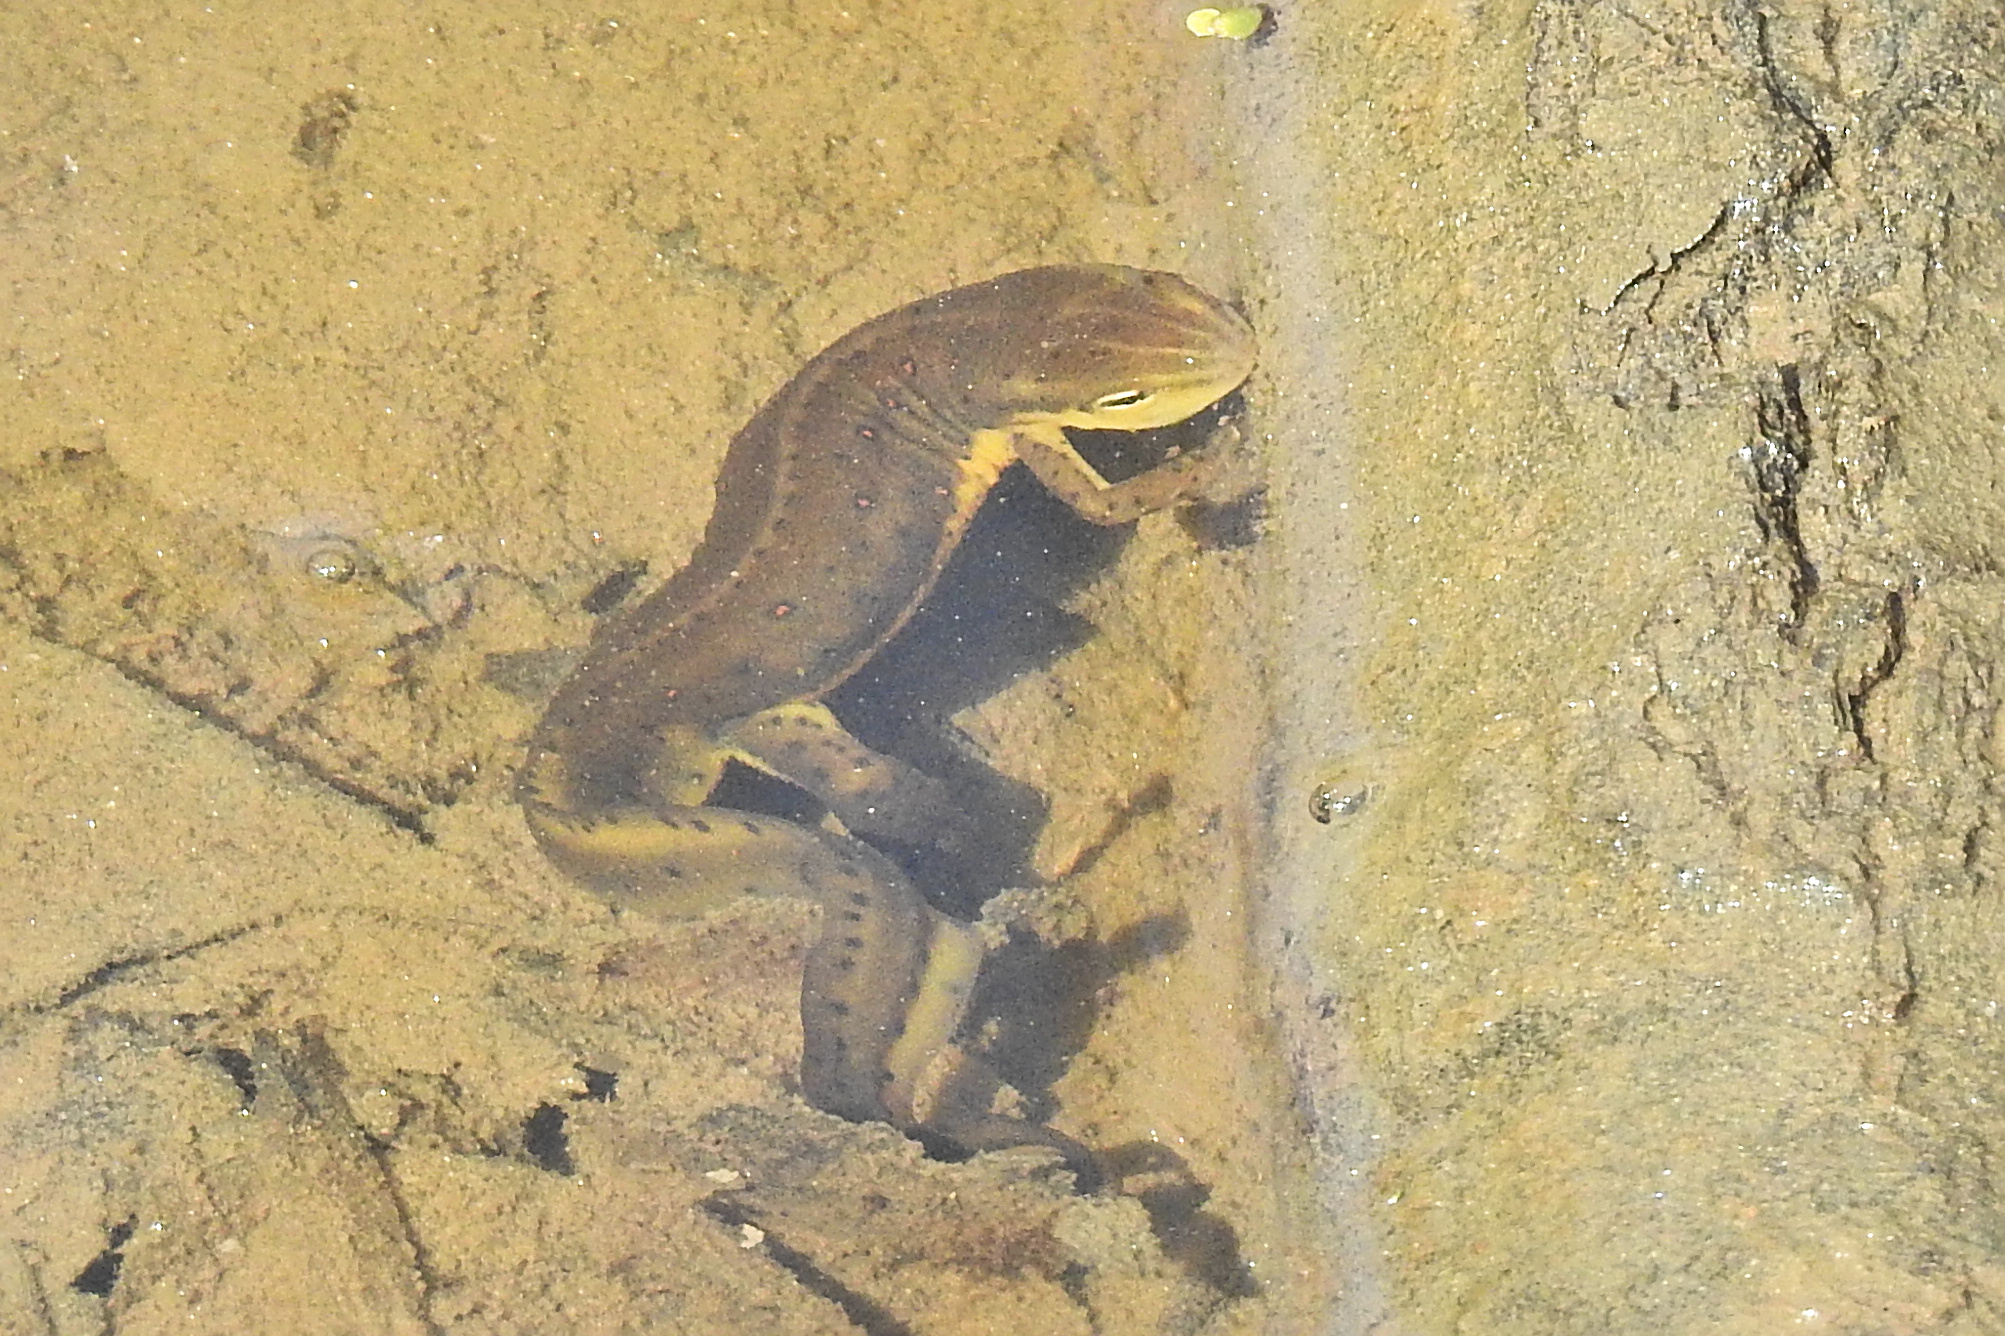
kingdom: Animalia
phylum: Chordata
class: Amphibia
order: Caudata
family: Salamandridae
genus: Notophthalmus
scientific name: Notophthalmus viridescens
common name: Eastern newt
